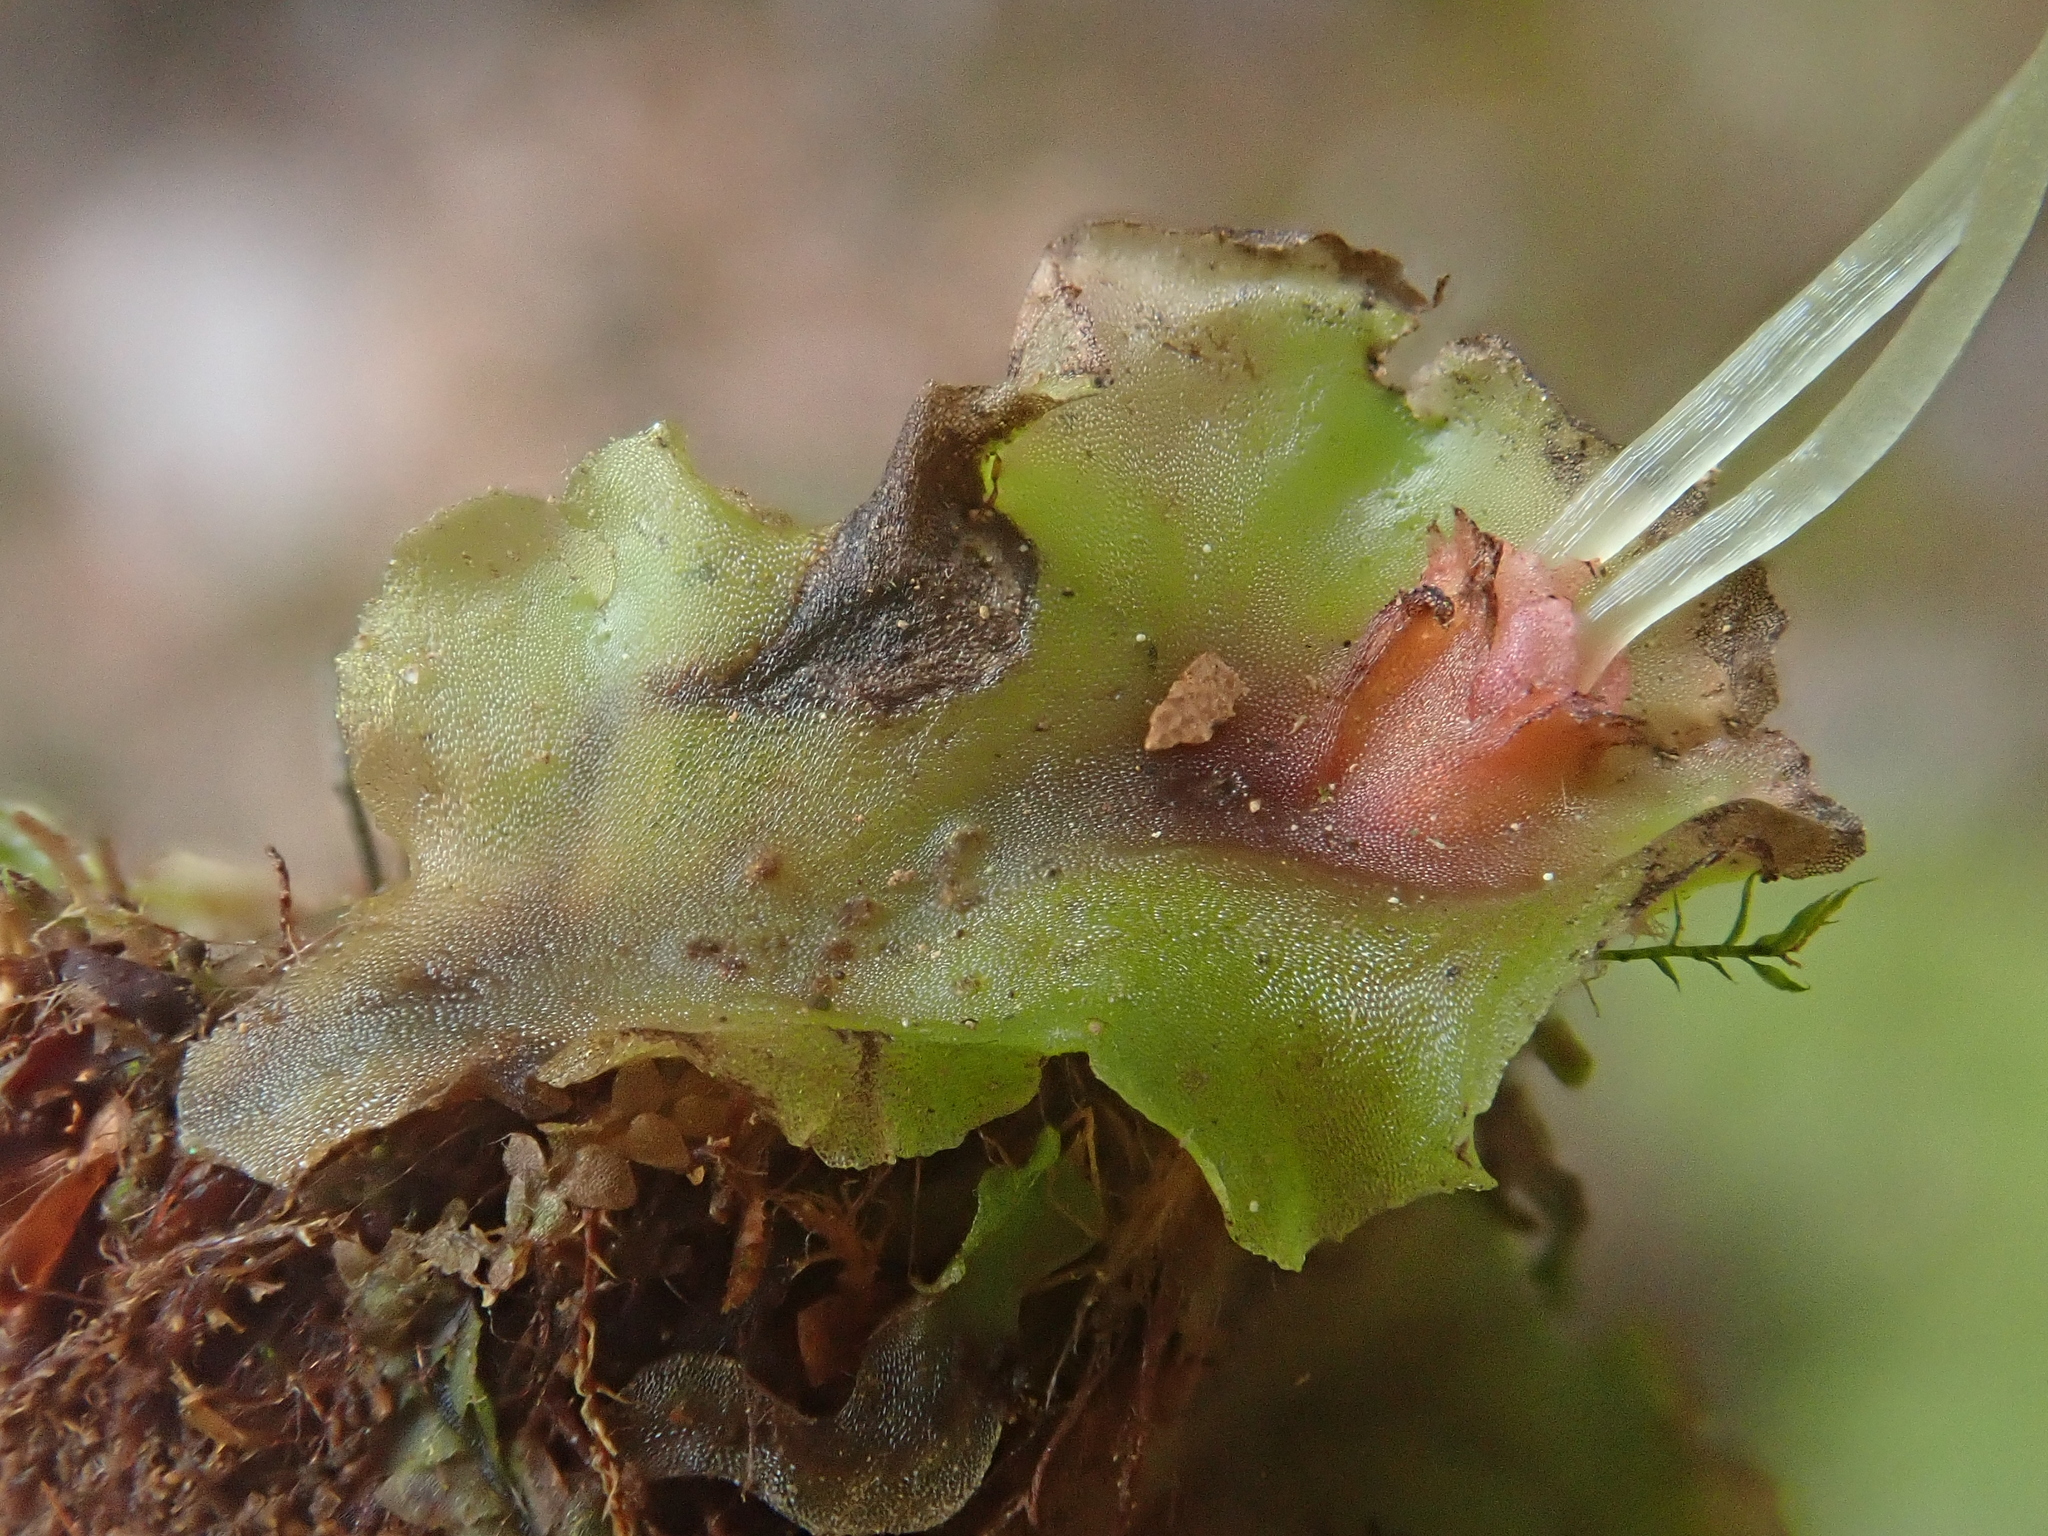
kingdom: Plantae
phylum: Marchantiophyta
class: Jungermanniopsida
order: Pelliales
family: Pelliaceae
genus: Pellia
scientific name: Pellia epiphylla
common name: Common pellia
